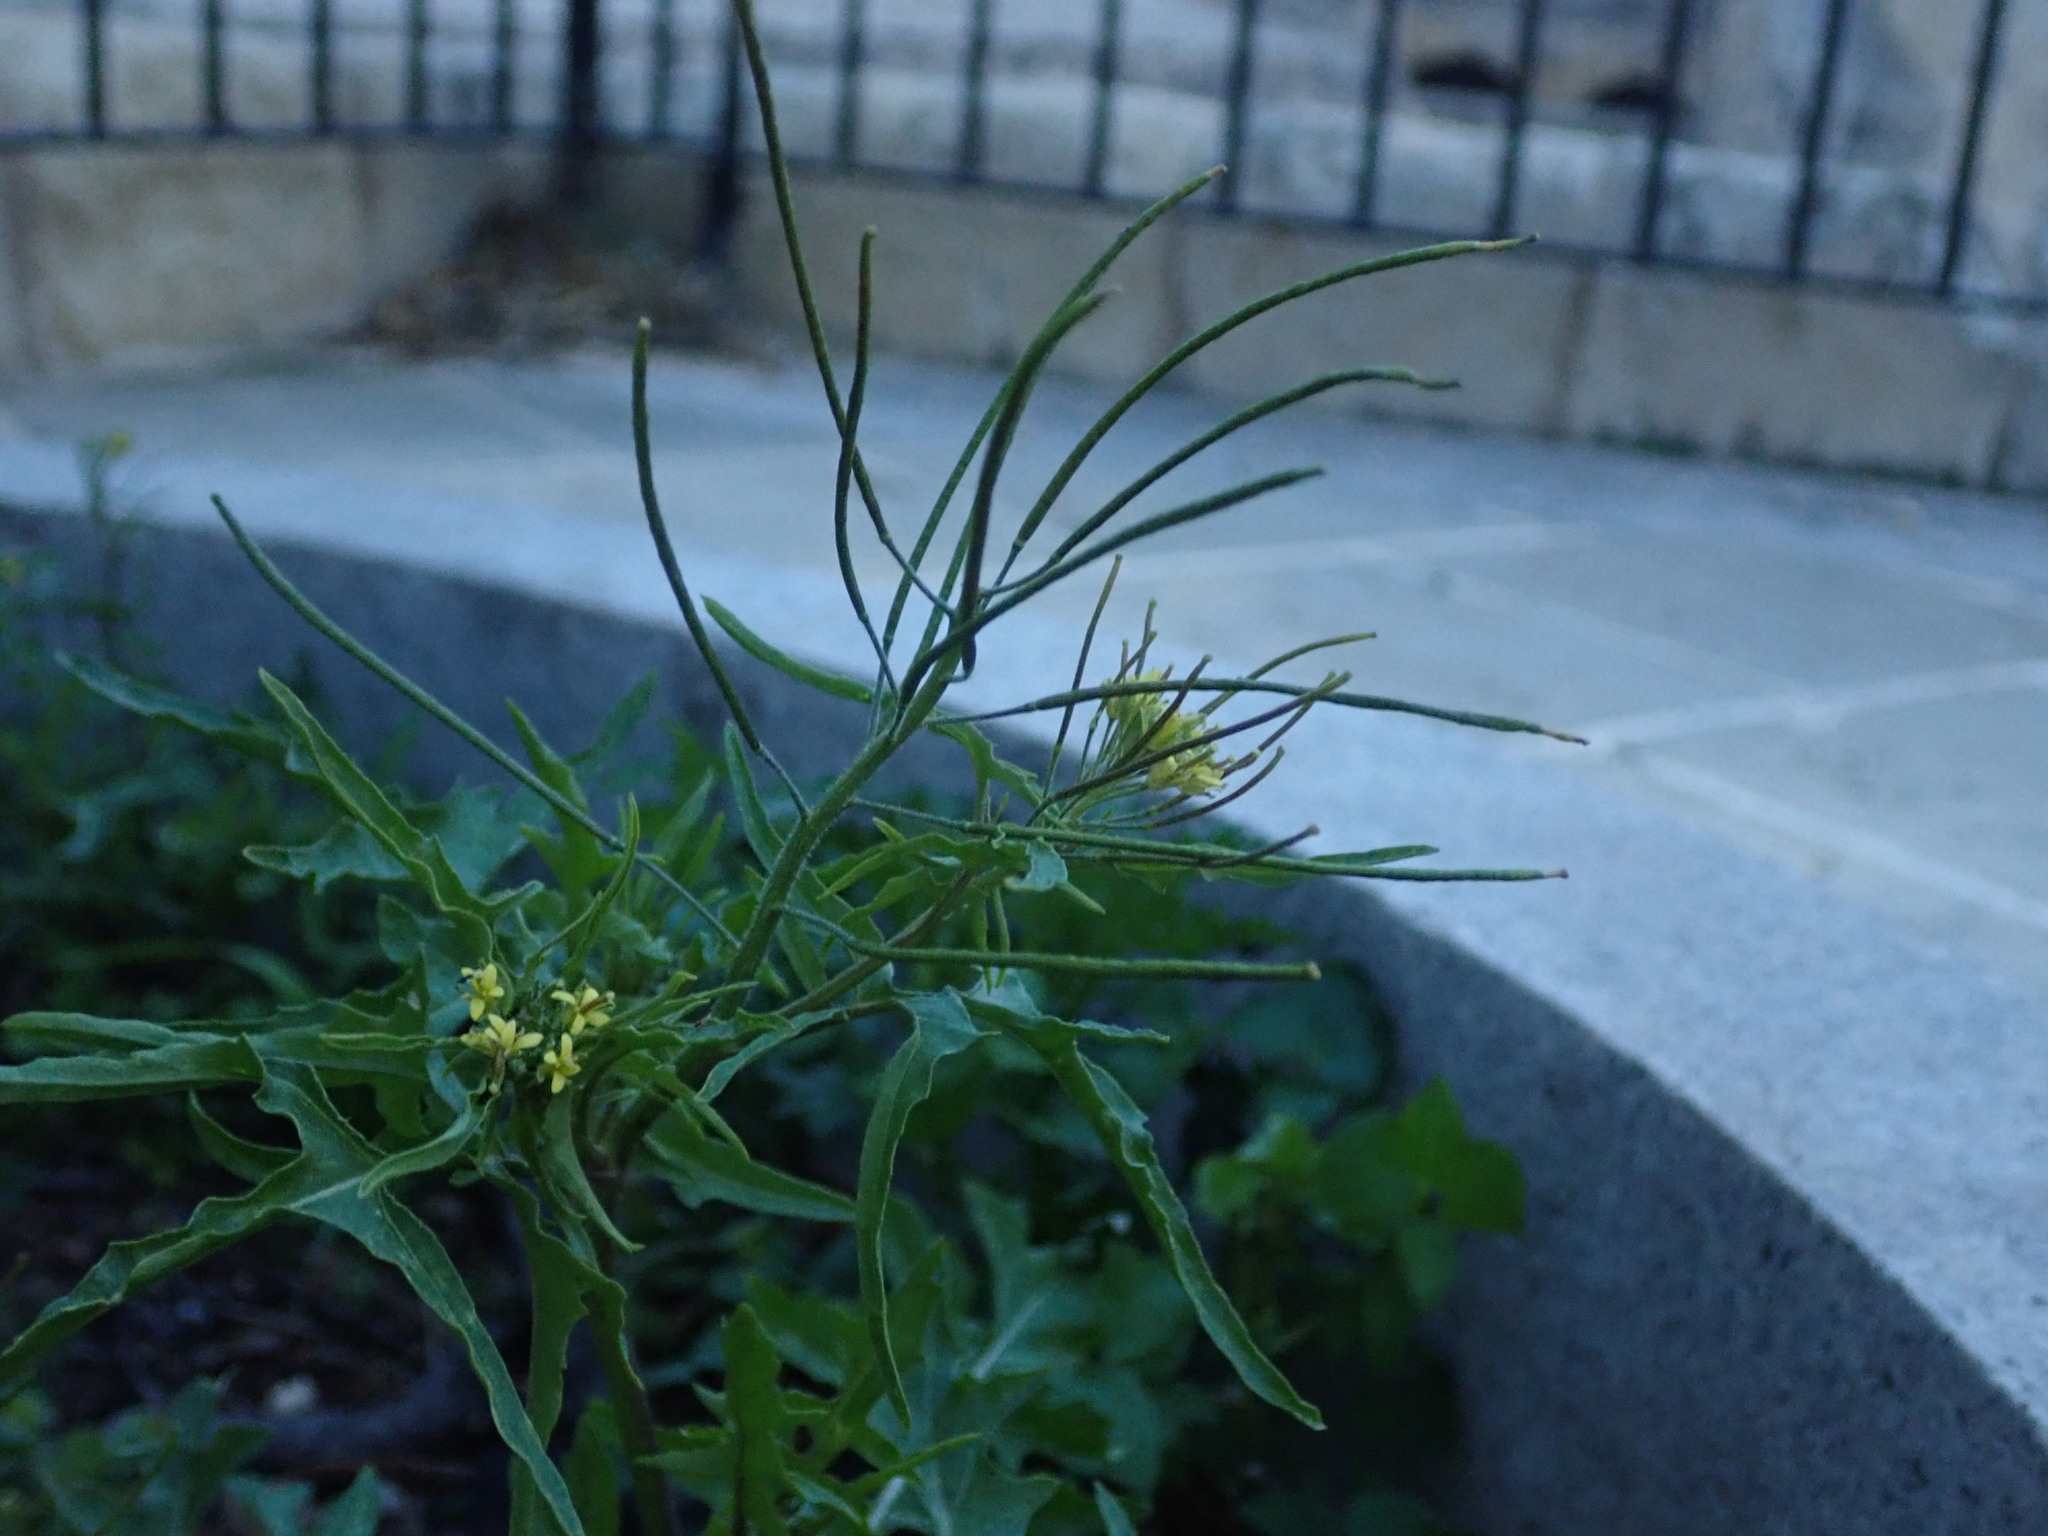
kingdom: Plantae
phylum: Tracheophyta
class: Magnoliopsida
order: Brassicales
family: Brassicaceae
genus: Sisymbrium
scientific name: Sisymbrium irio
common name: London rocket
